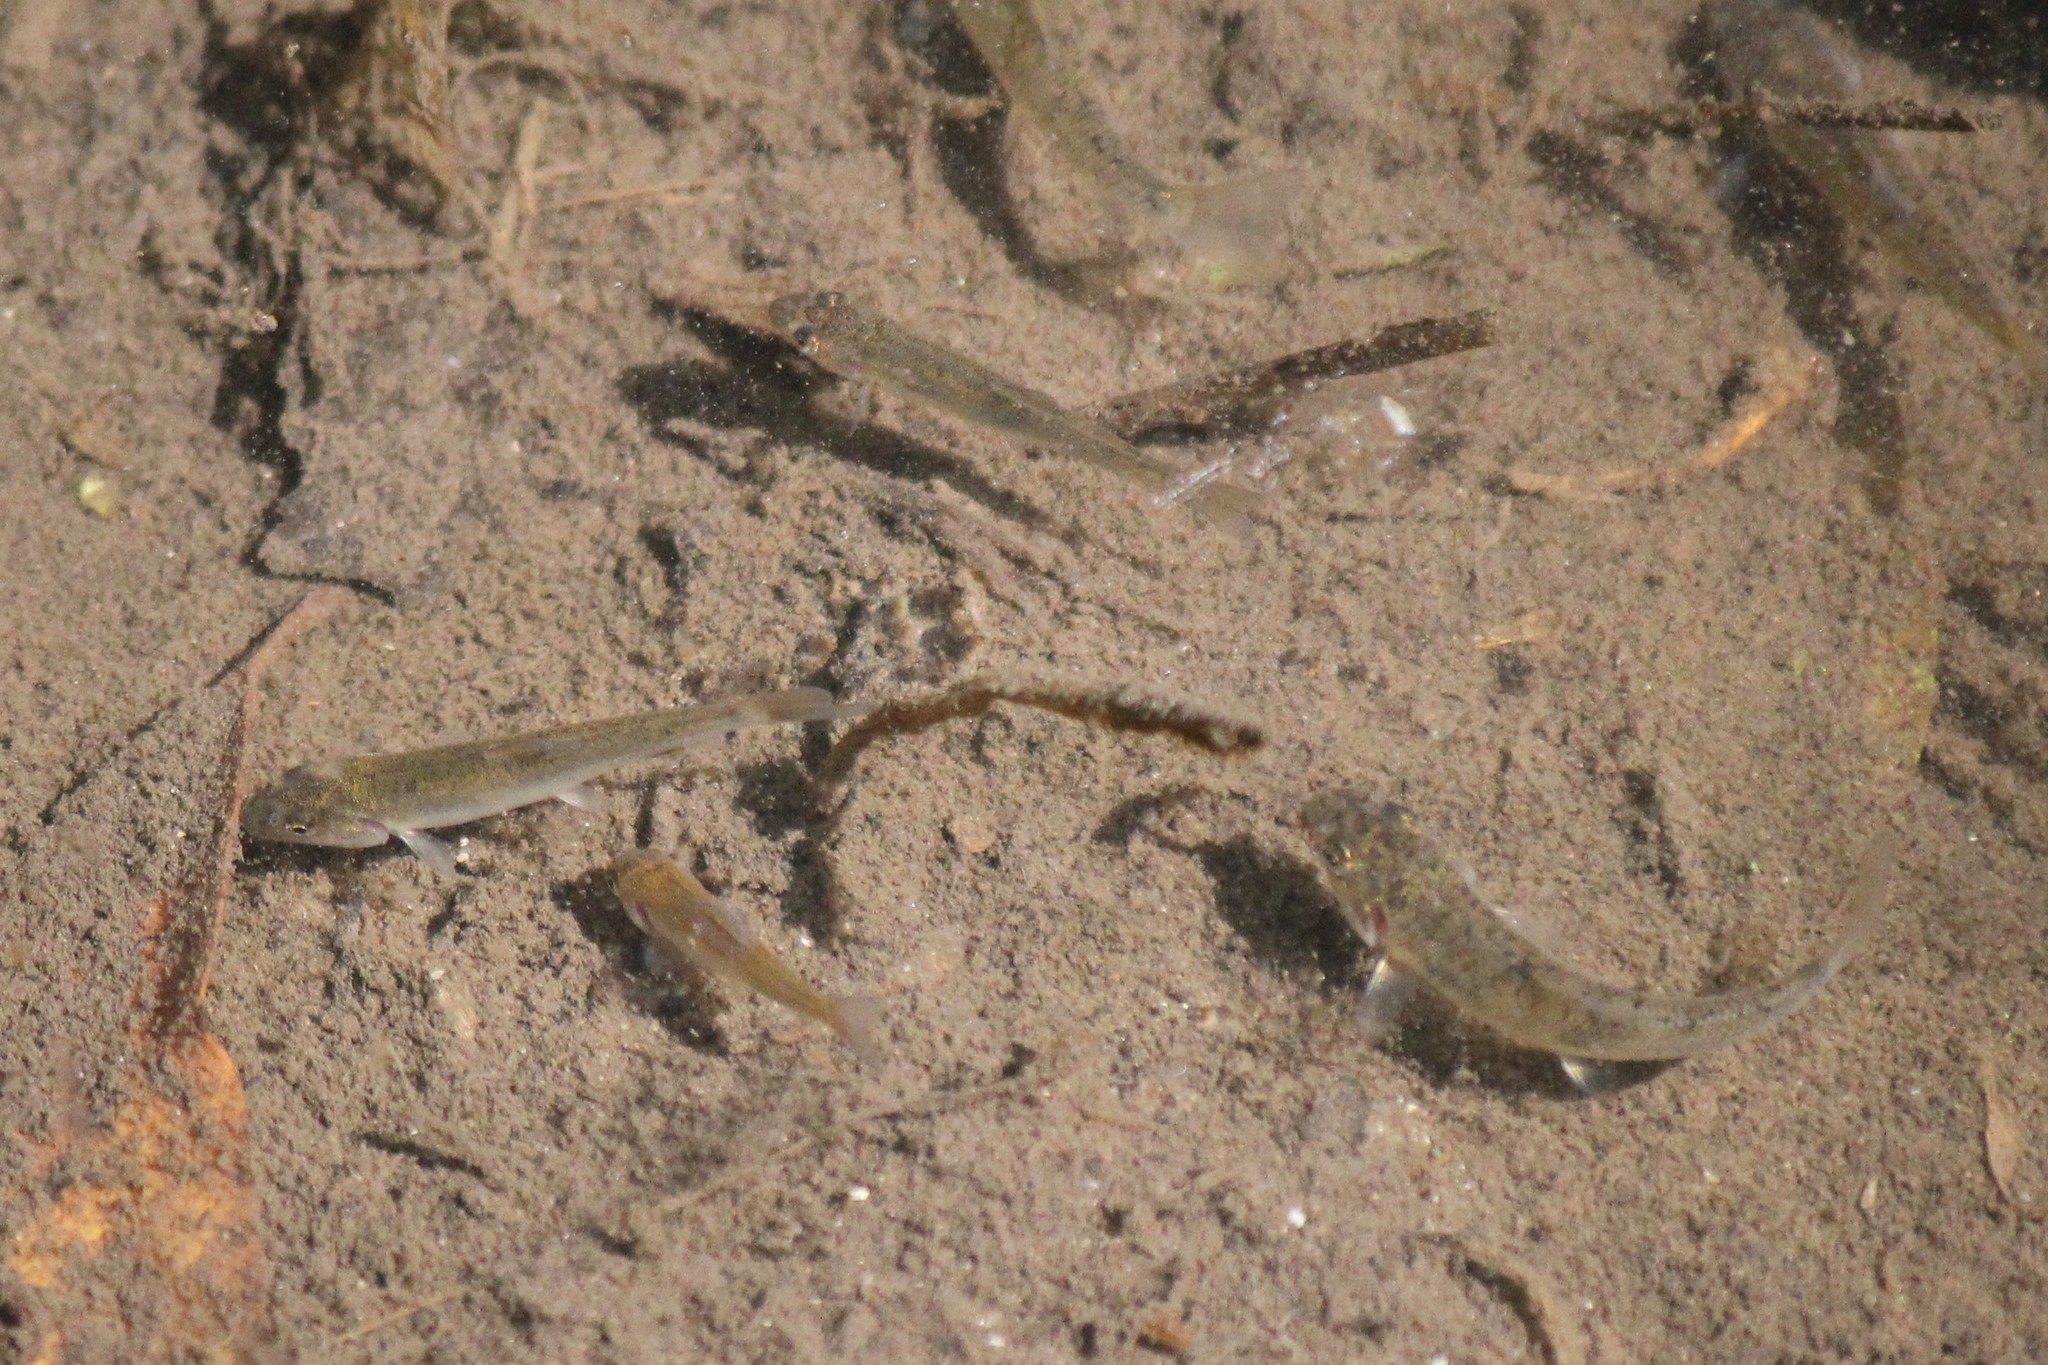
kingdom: Animalia
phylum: Chordata
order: Cypriniformes
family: Catostomidae
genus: Catostomus
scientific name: Catostomus commersonii
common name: White sucker
